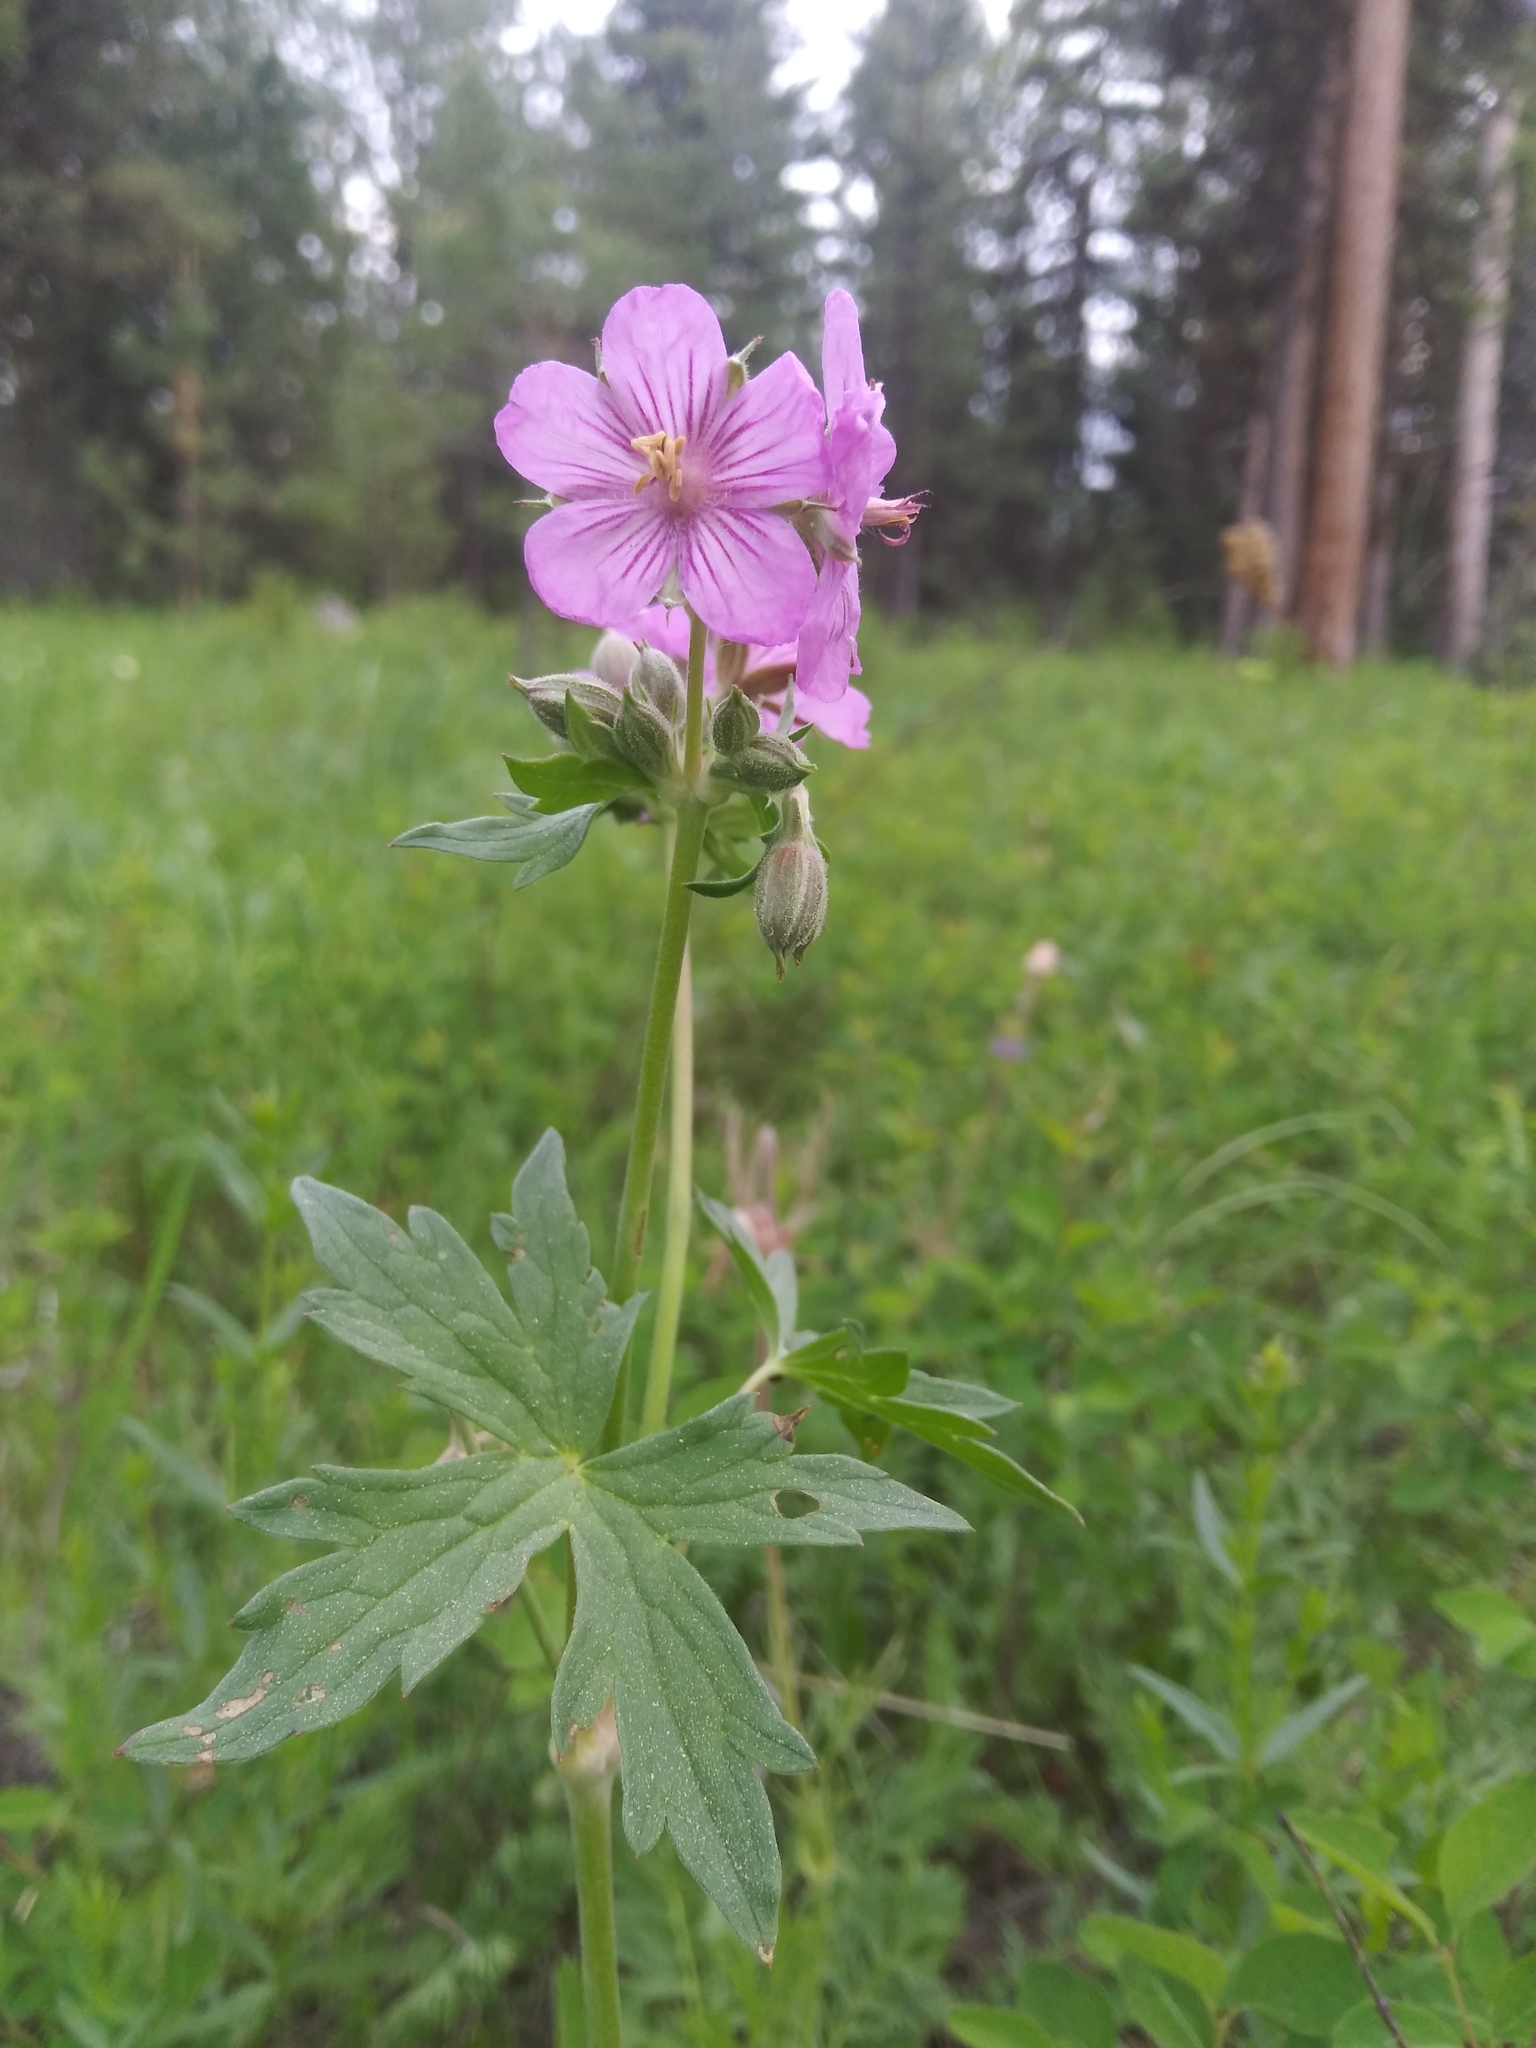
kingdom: Plantae
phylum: Tracheophyta
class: Magnoliopsida
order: Geraniales
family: Geraniaceae
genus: Geranium
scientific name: Geranium viscosissimum
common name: Purple geranium
